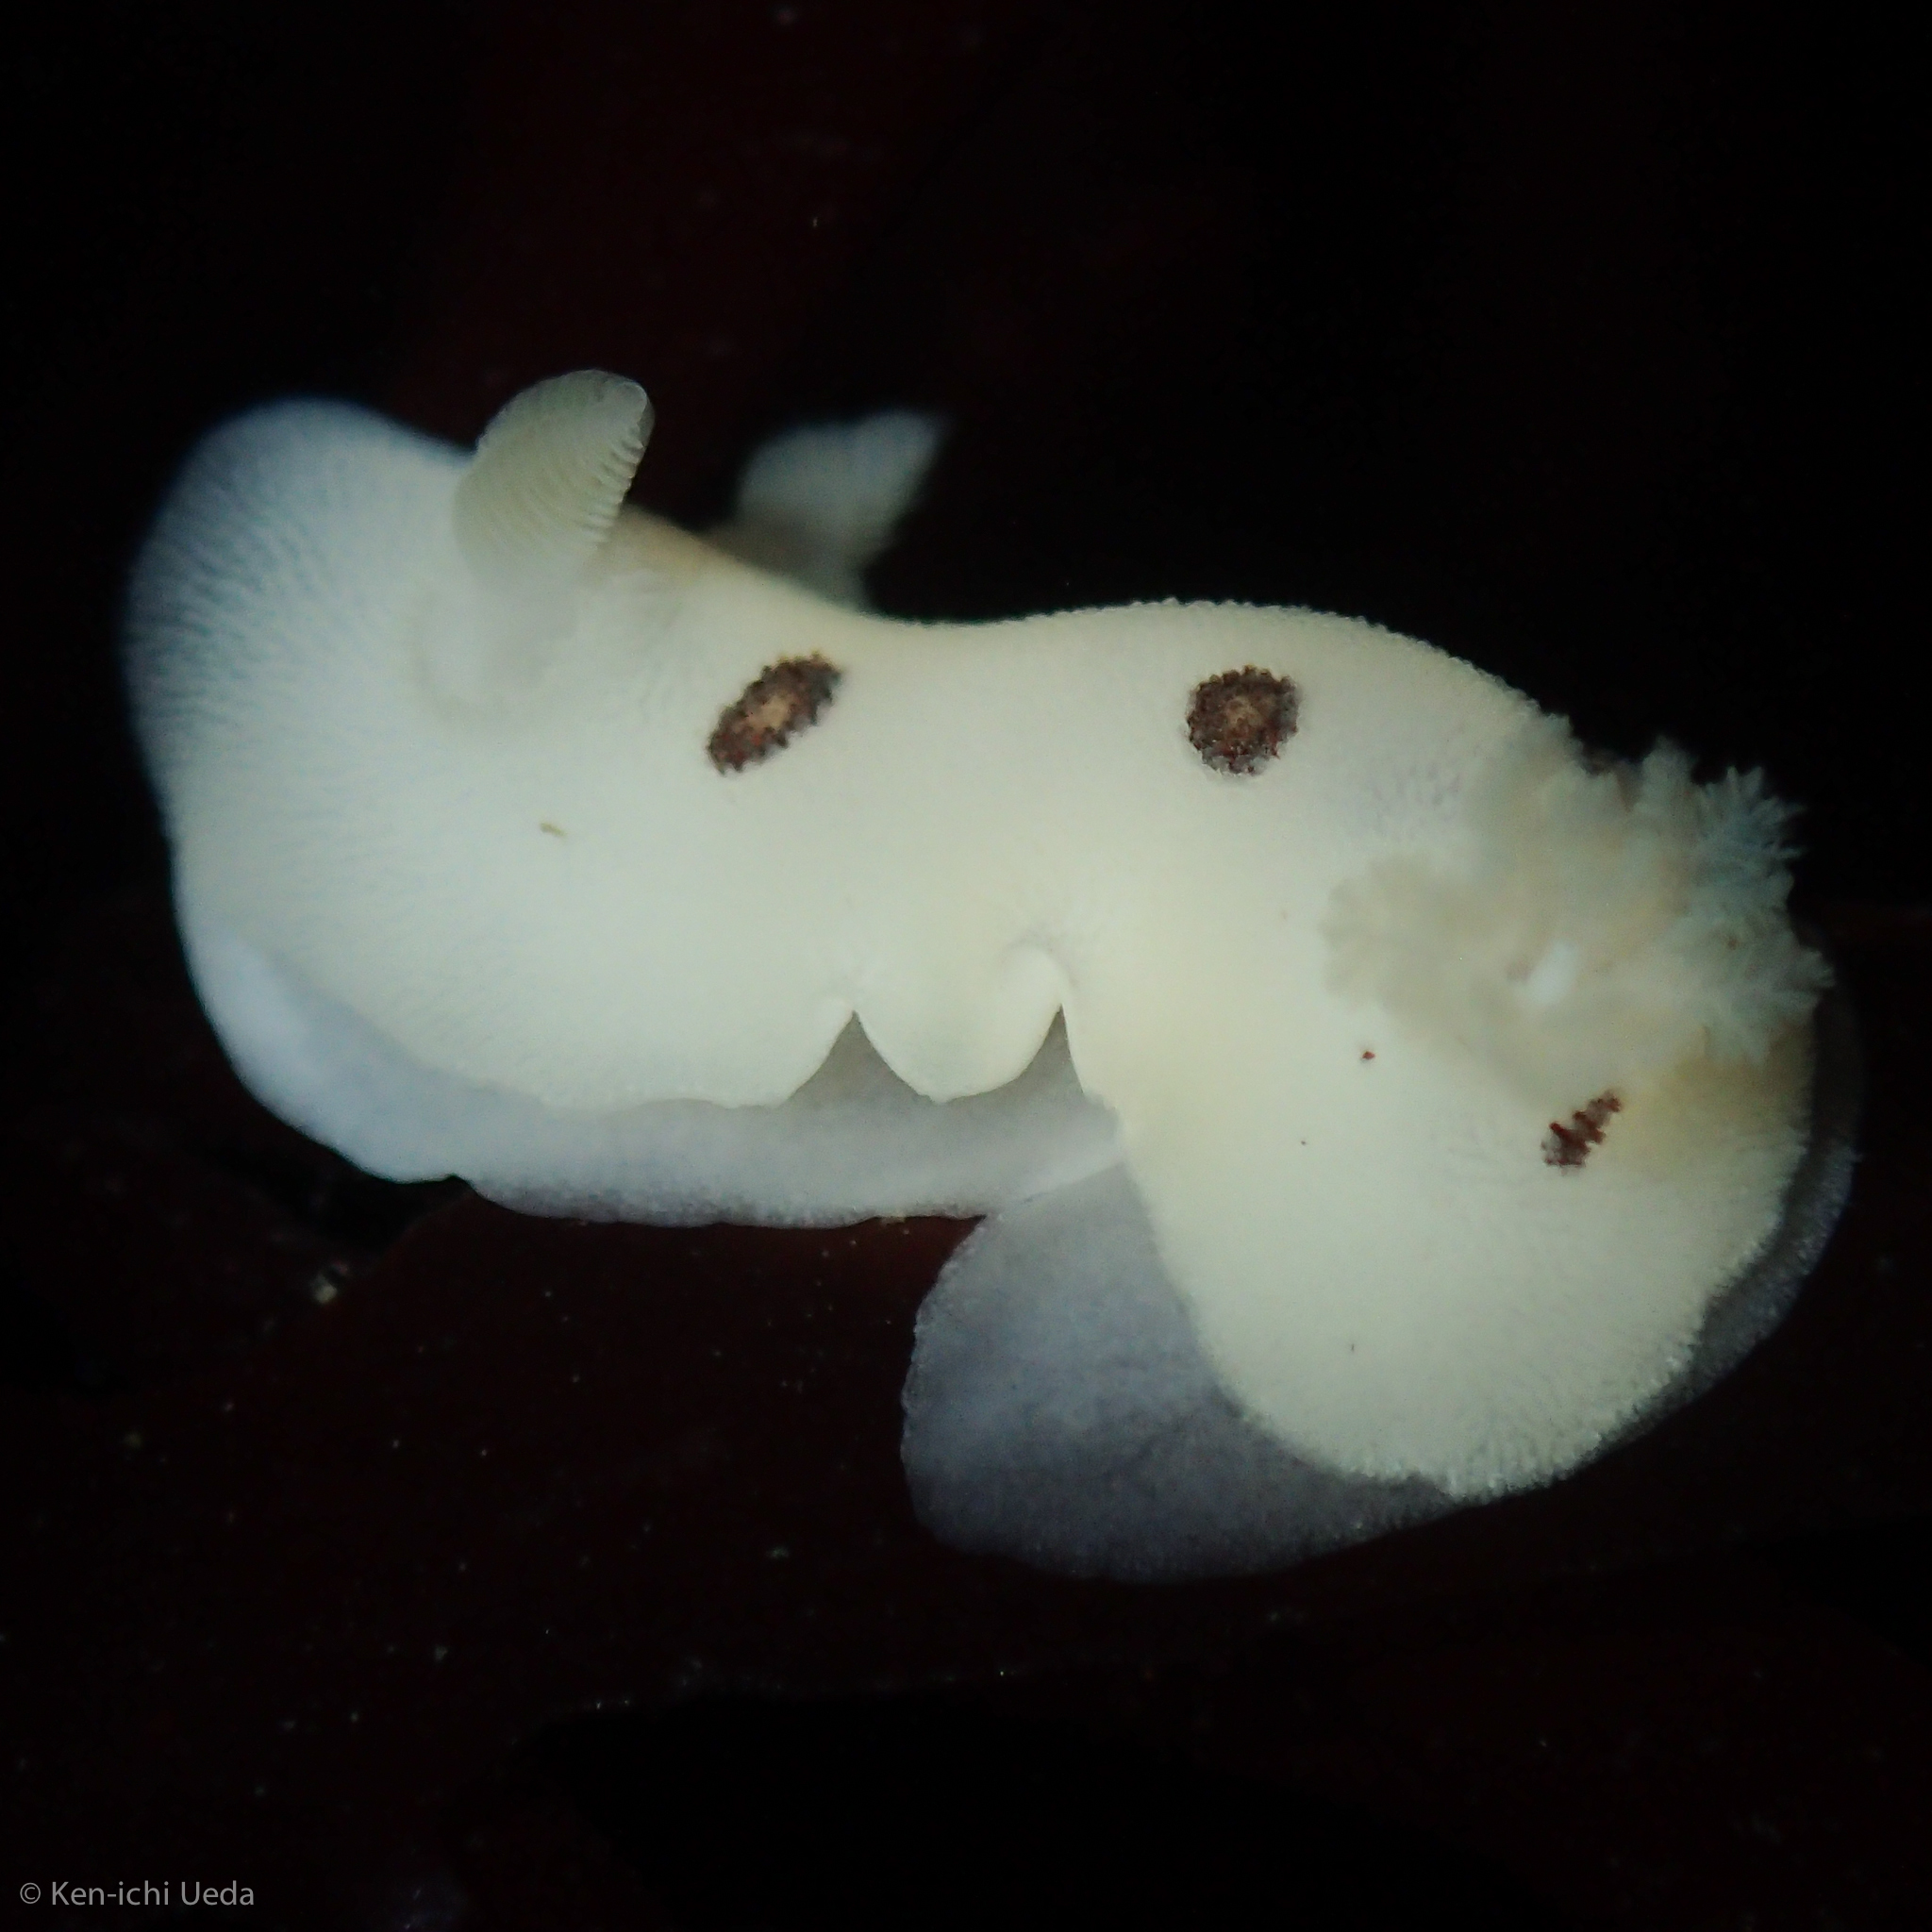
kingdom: Animalia
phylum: Mollusca
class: Gastropoda
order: Nudibranchia
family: Discodorididae
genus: Diaulula
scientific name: Diaulula sandiegensis
